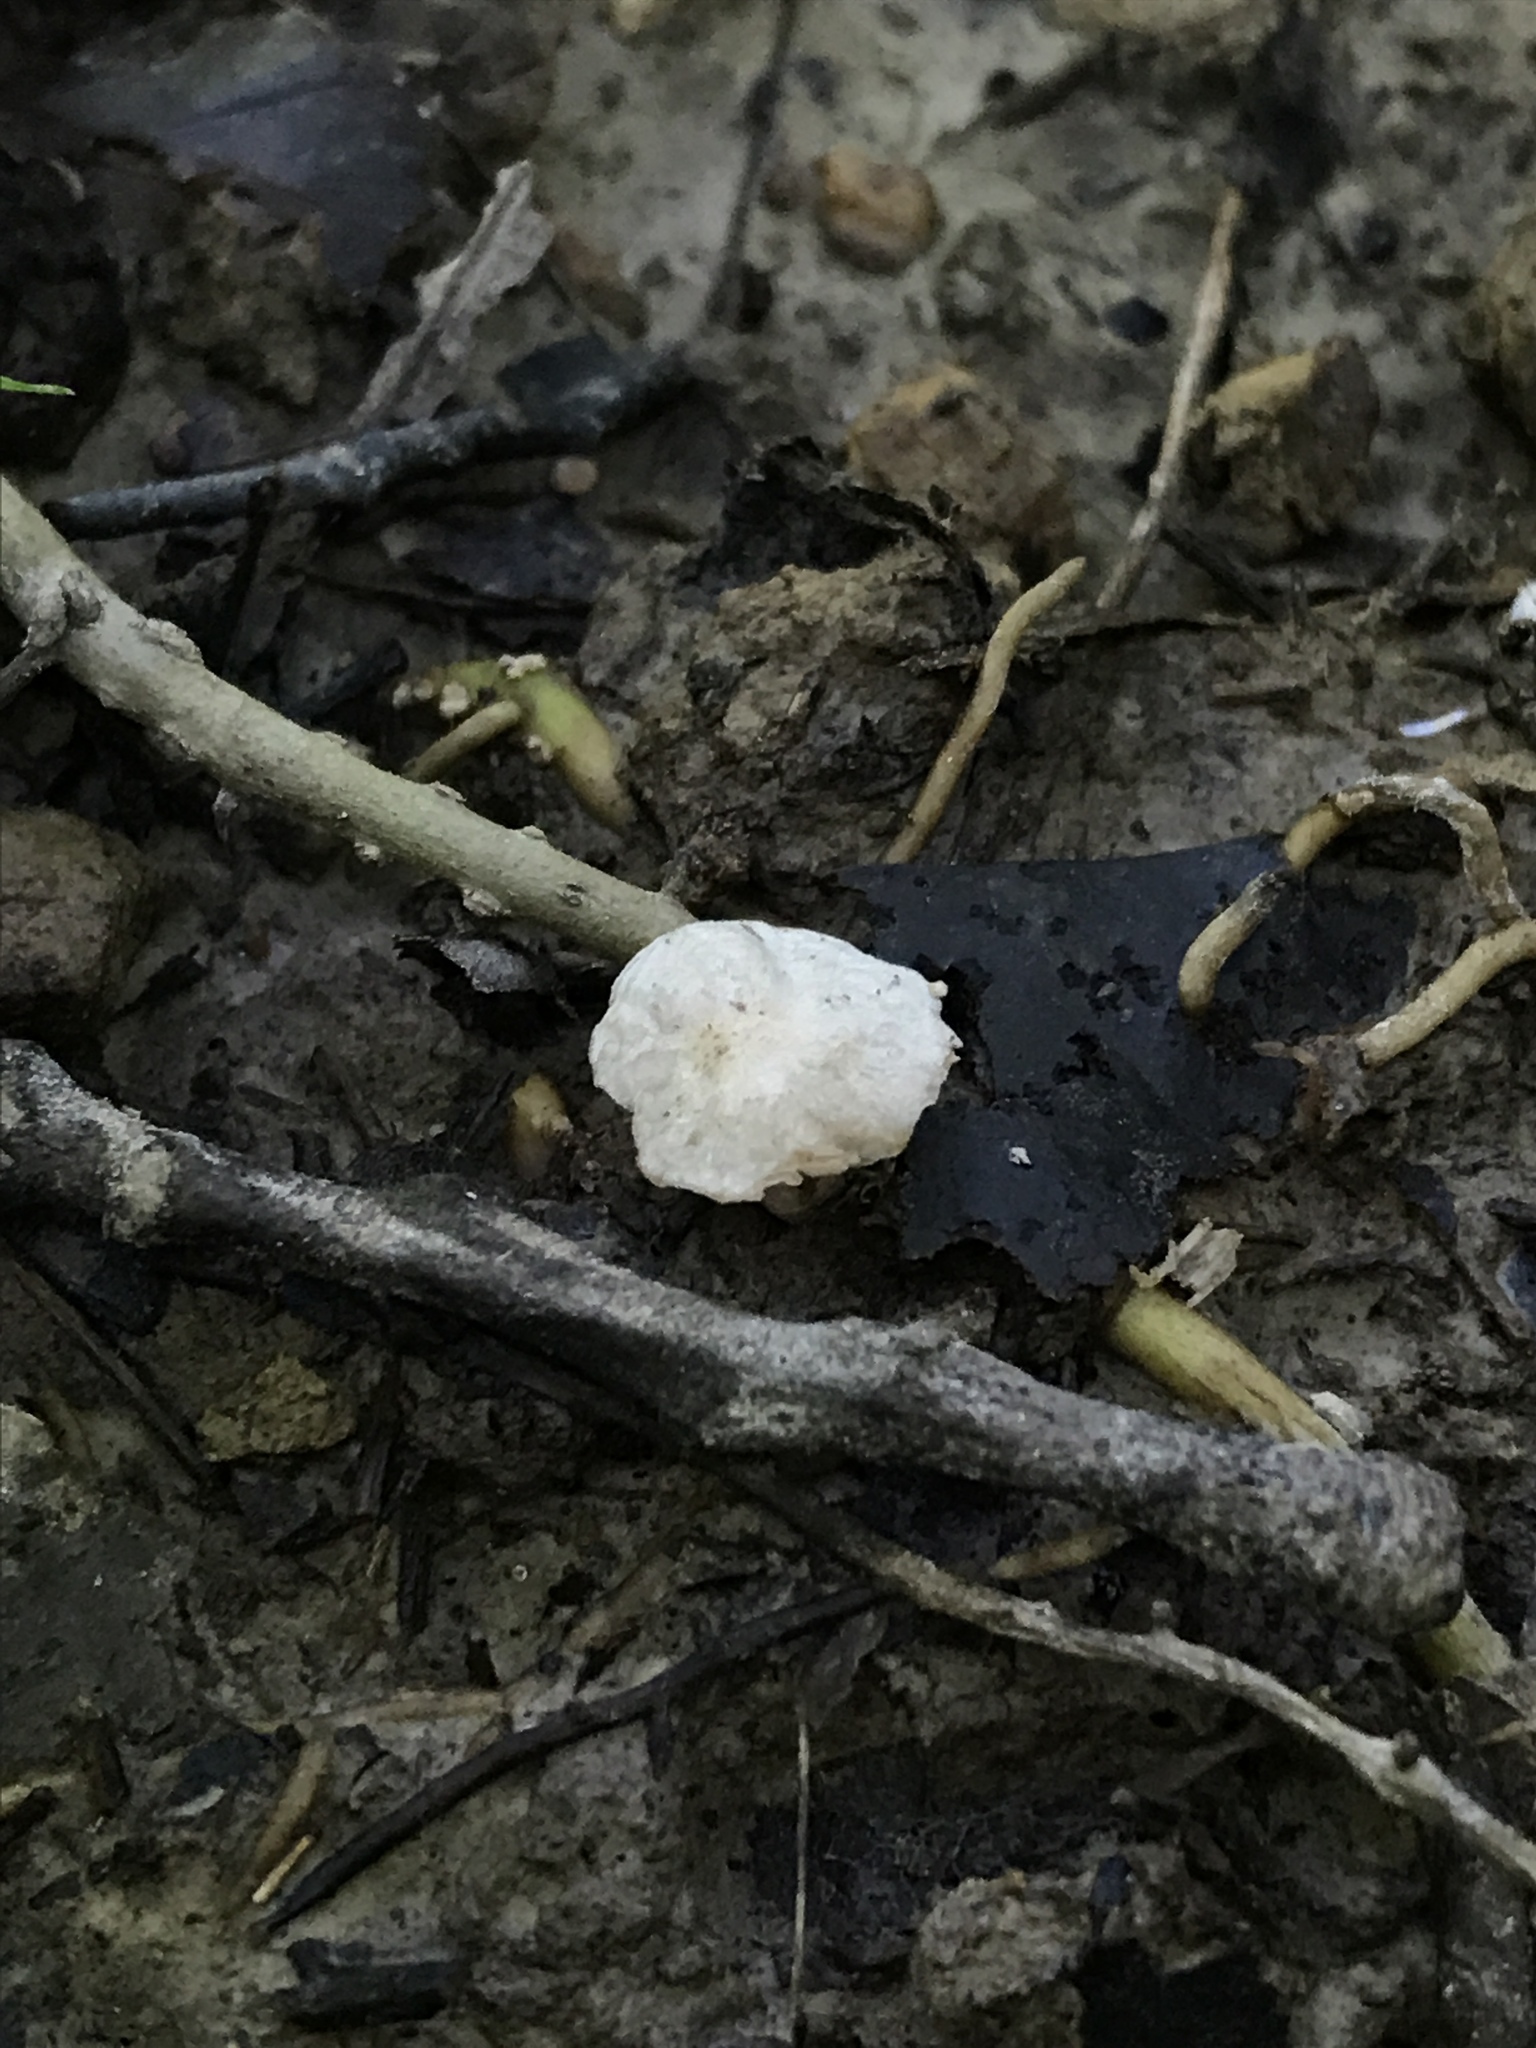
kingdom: Fungi
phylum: Basidiomycota
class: Agaricomycetes
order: Agaricales
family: Omphalotaceae
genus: Marasmiellus
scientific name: Marasmiellus candidus
